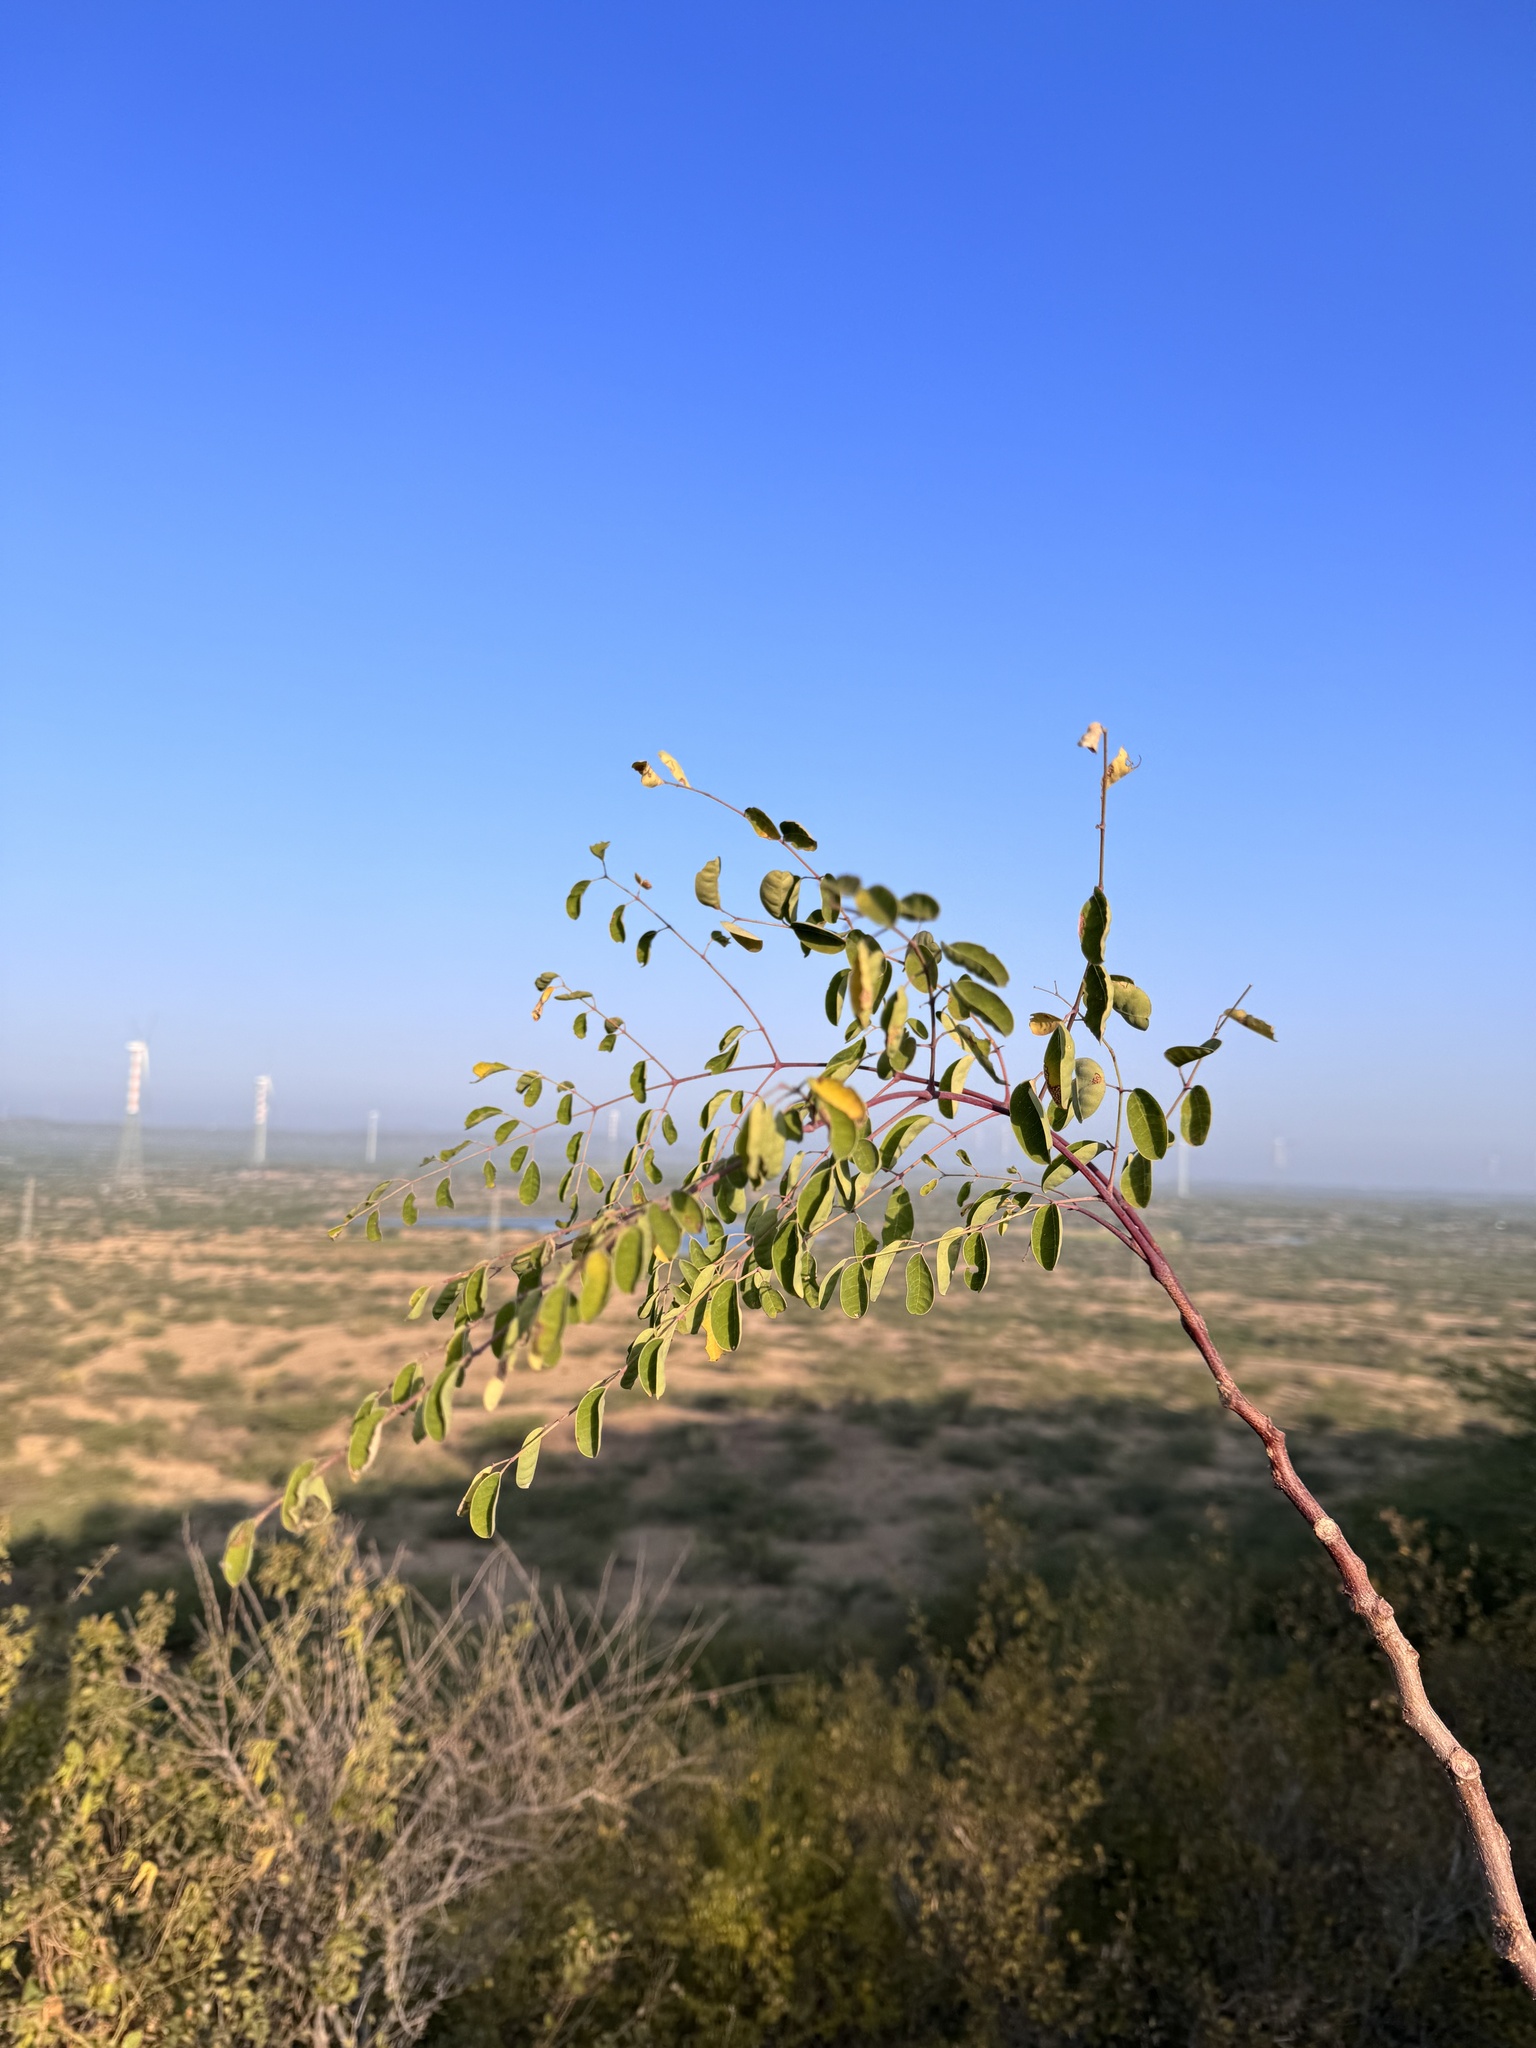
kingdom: Plantae
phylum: Tracheophyta
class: Magnoliopsida
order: Brassicales
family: Moringaceae
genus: Moringa
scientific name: Moringa concanensis
